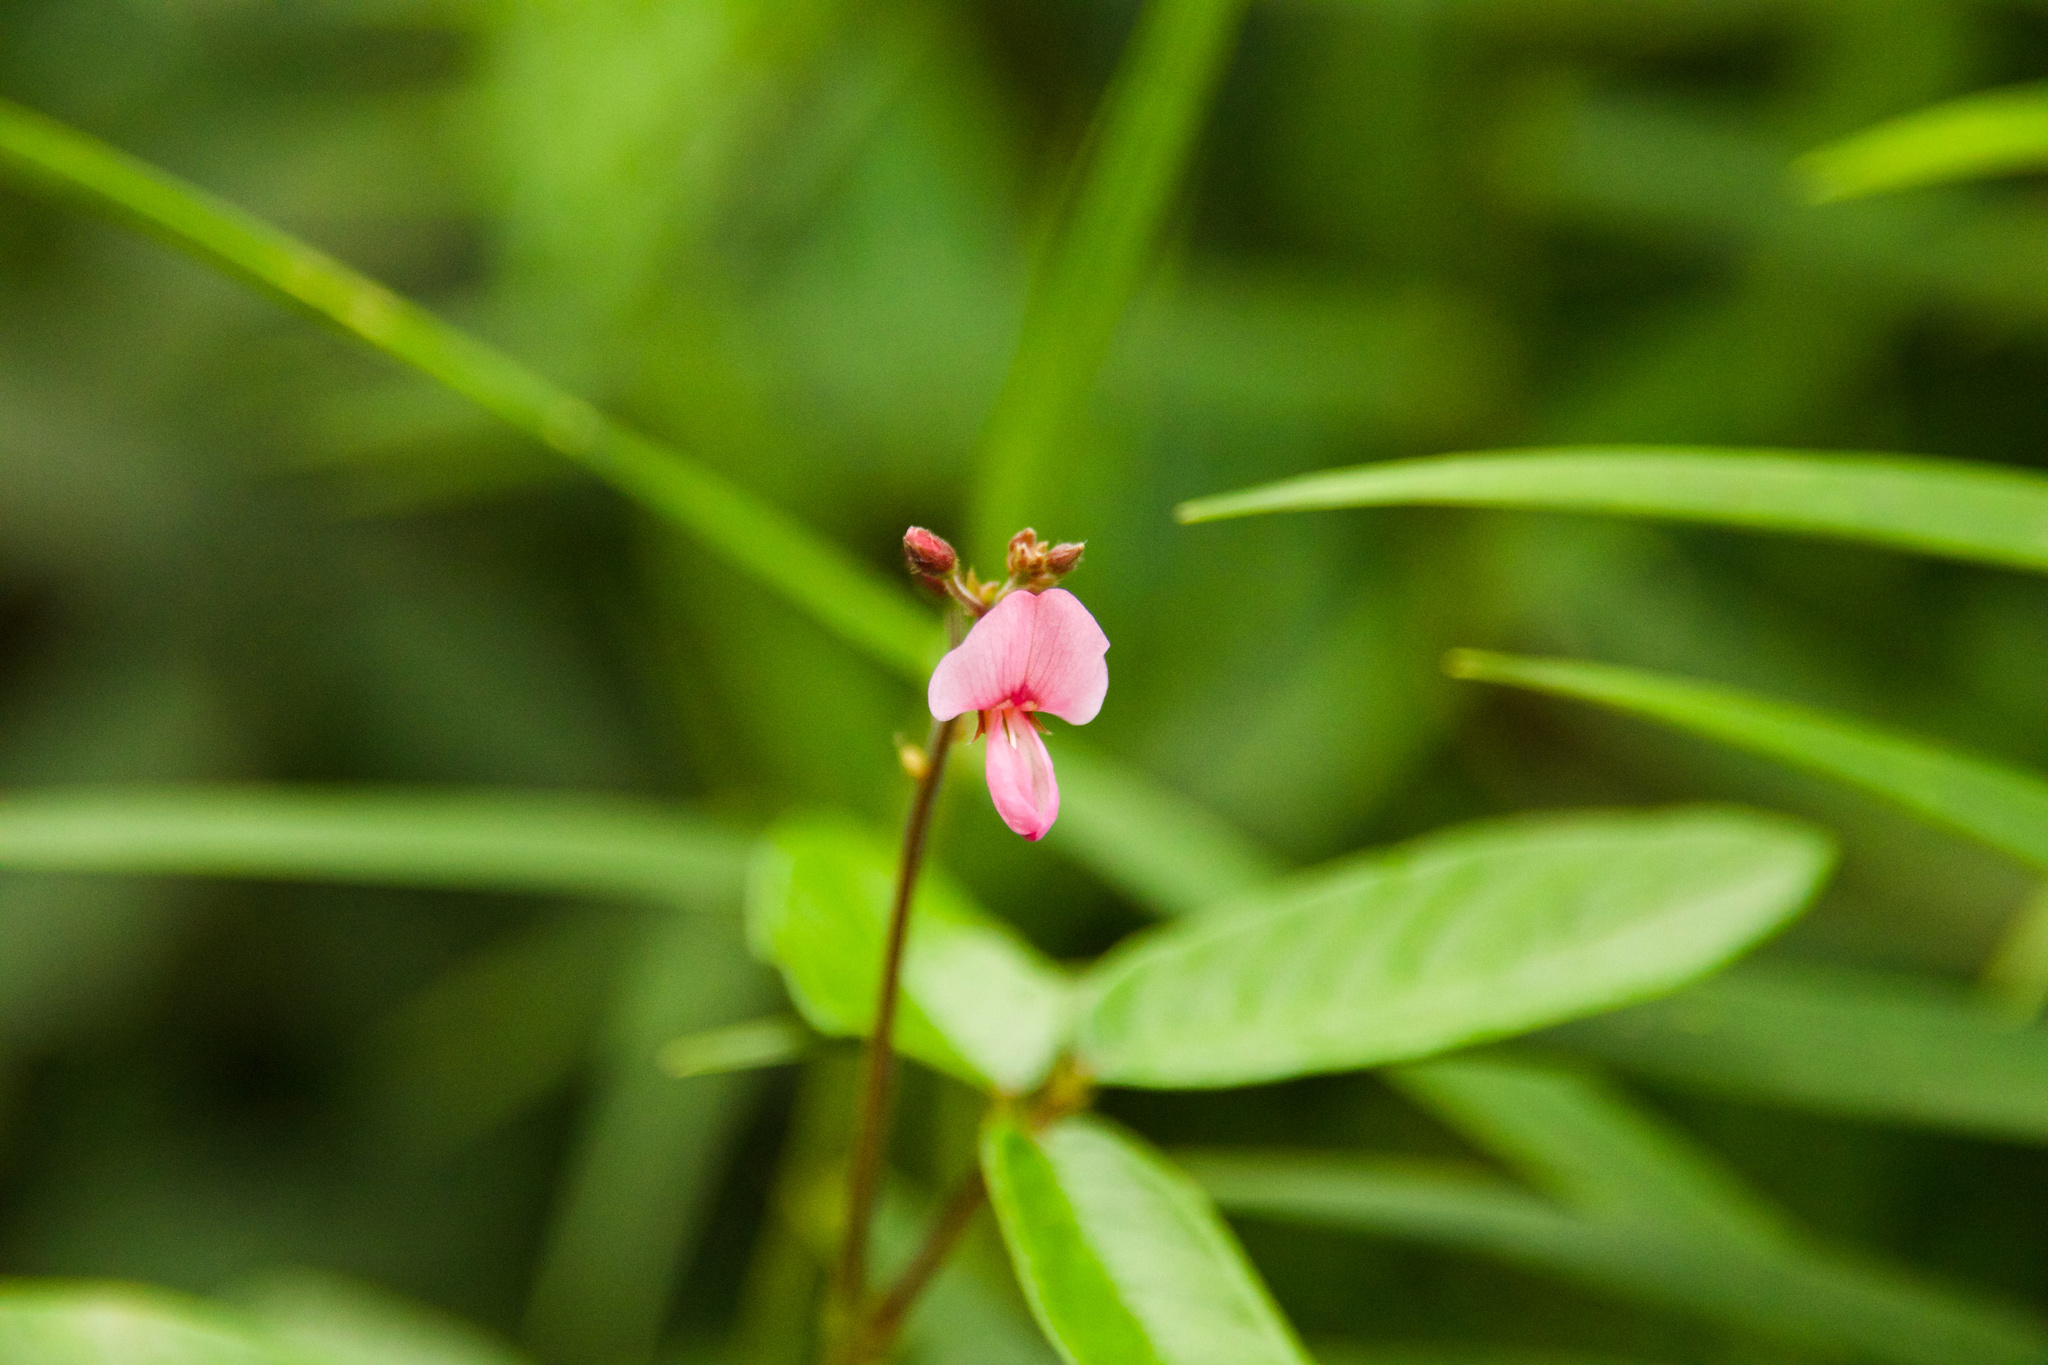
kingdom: Plantae
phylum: Tracheophyta
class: Magnoliopsida
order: Fabales
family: Fabaceae
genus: Desmodium
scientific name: Desmodium incanum
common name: Tickclover
